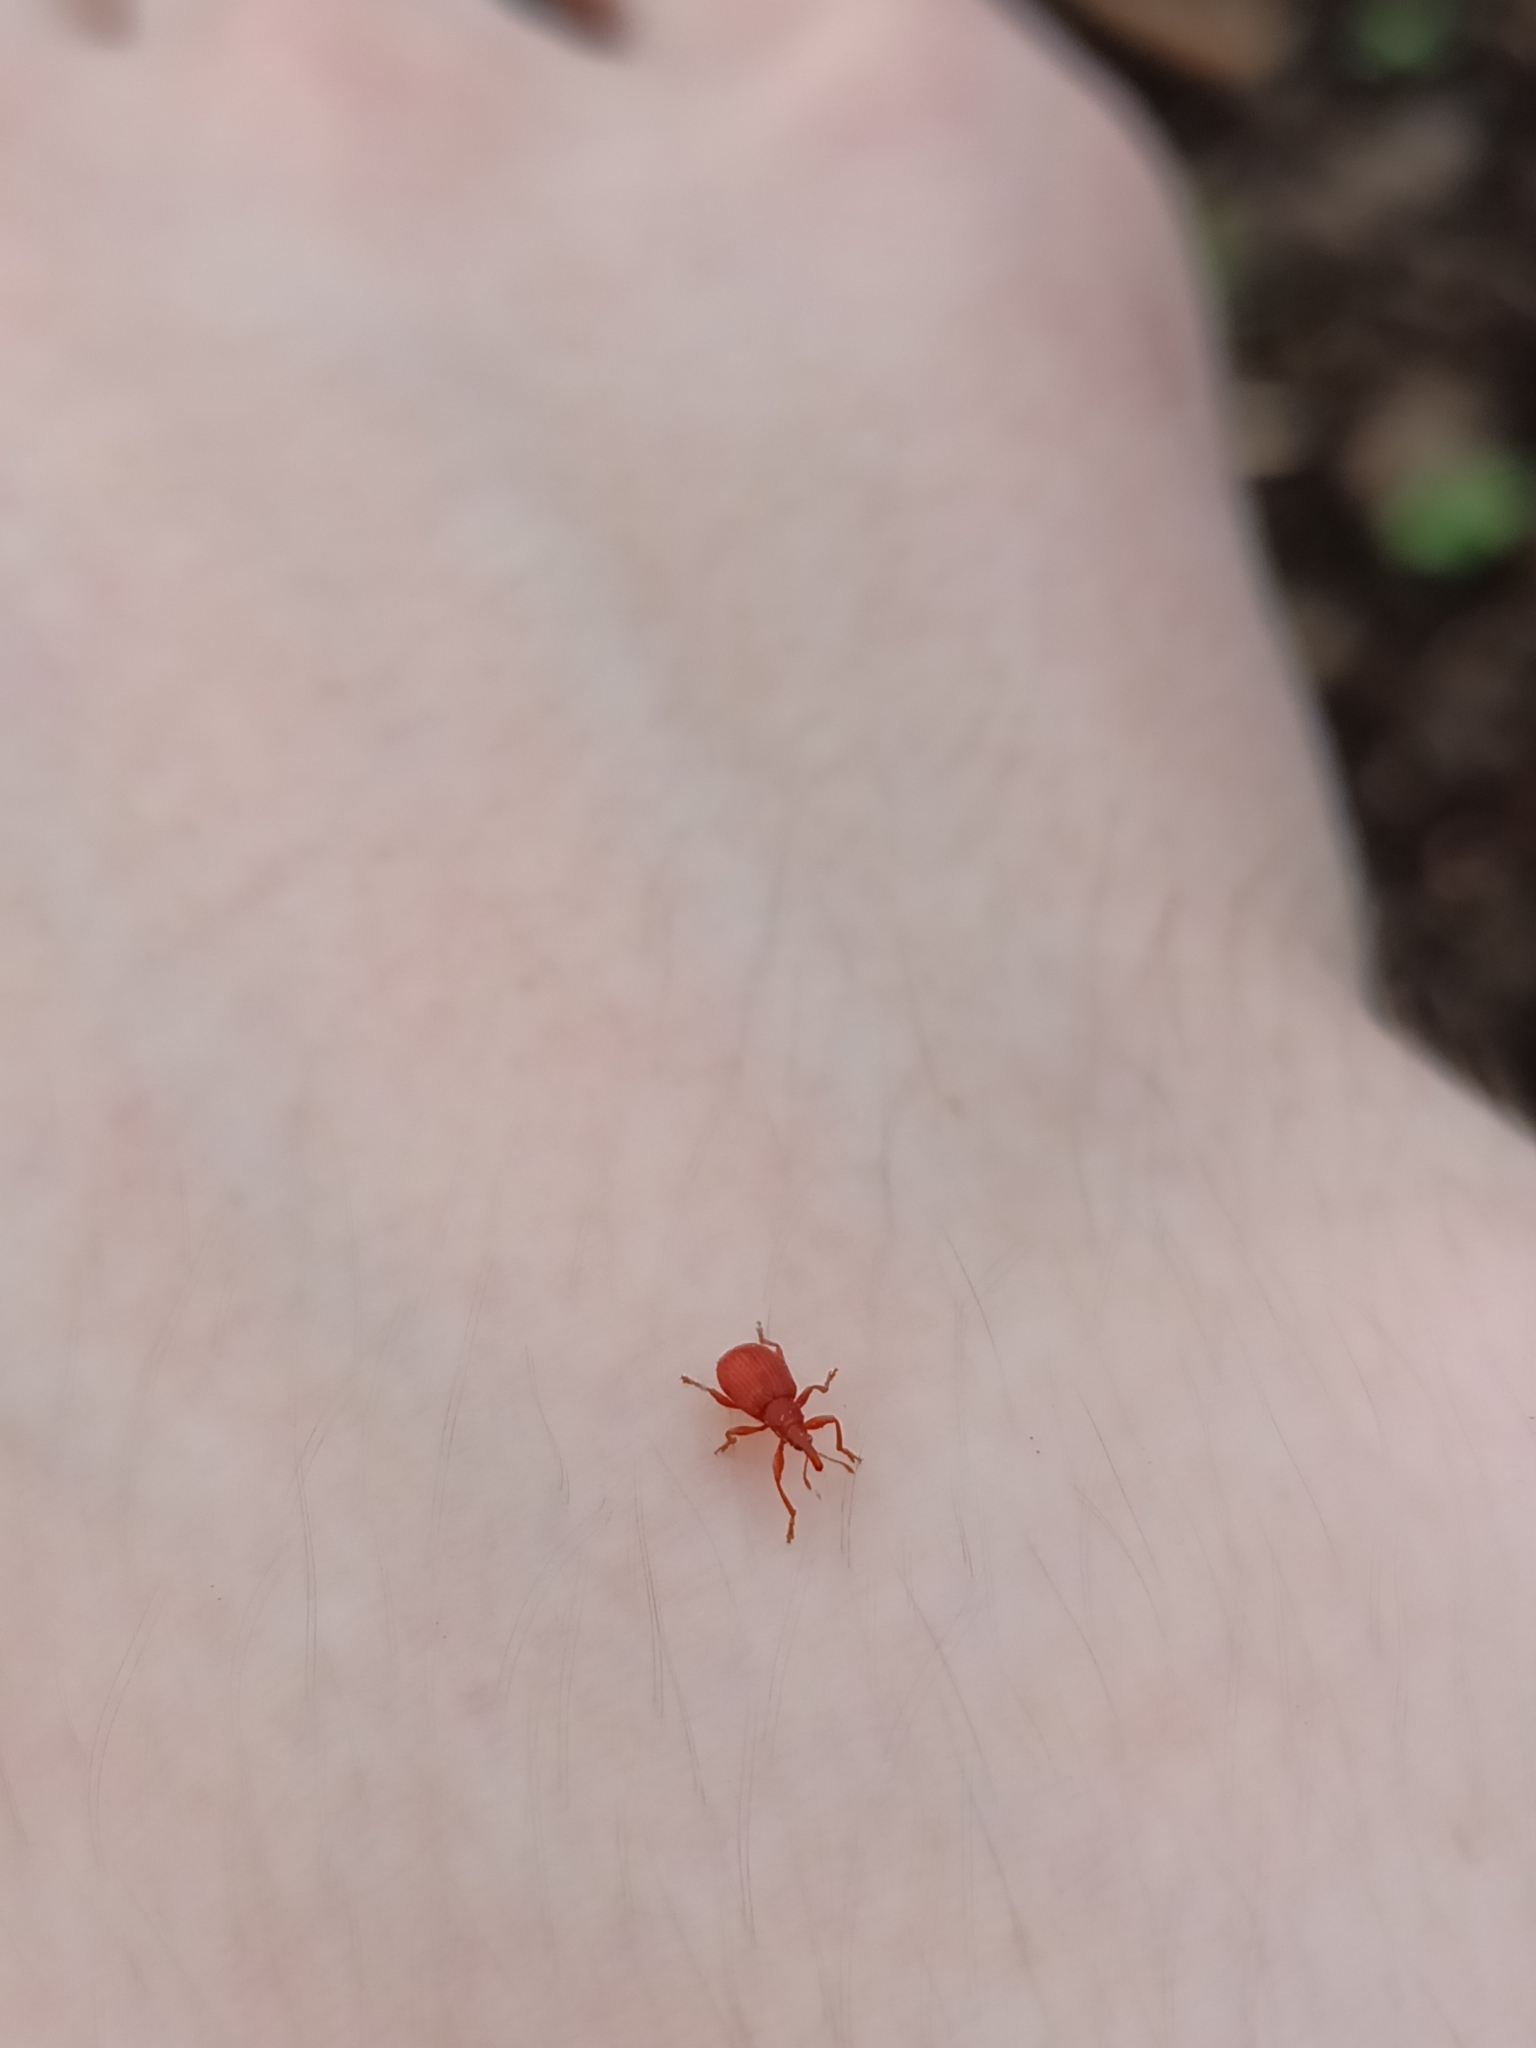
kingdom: Animalia
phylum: Arthropoda
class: Insecta
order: Coleoptera
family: Apionidae
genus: Apion
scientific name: Apion frumentarium
